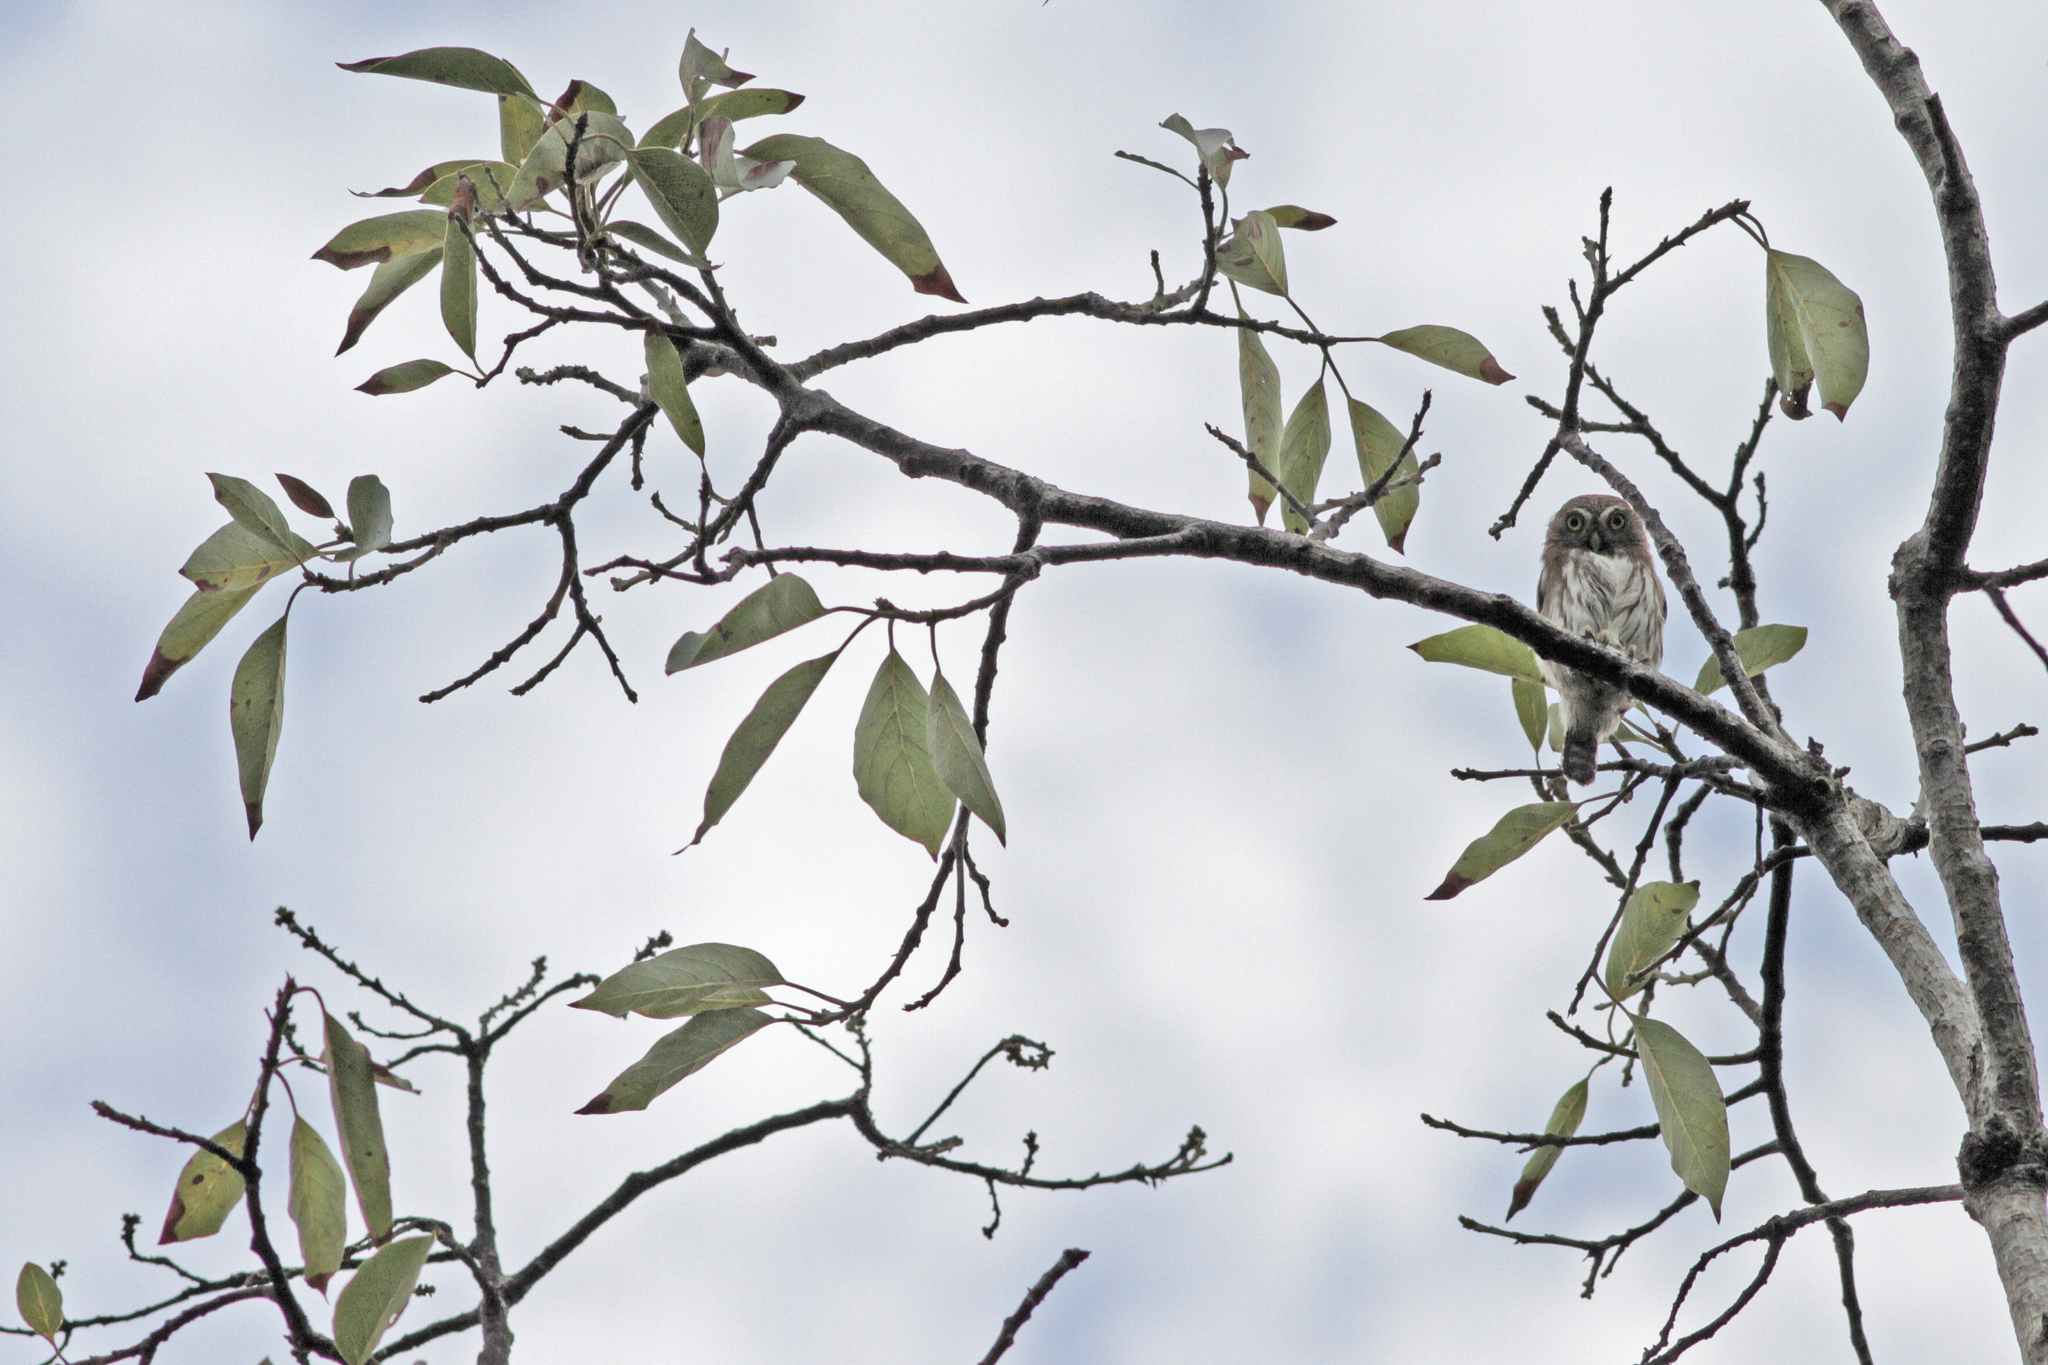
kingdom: Animalia
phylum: Chordata
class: Aves
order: Strigiformes
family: Strigidae
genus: Glaucidium
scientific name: Glaucidium brasilianum
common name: Ferruginous pygmy-owl
